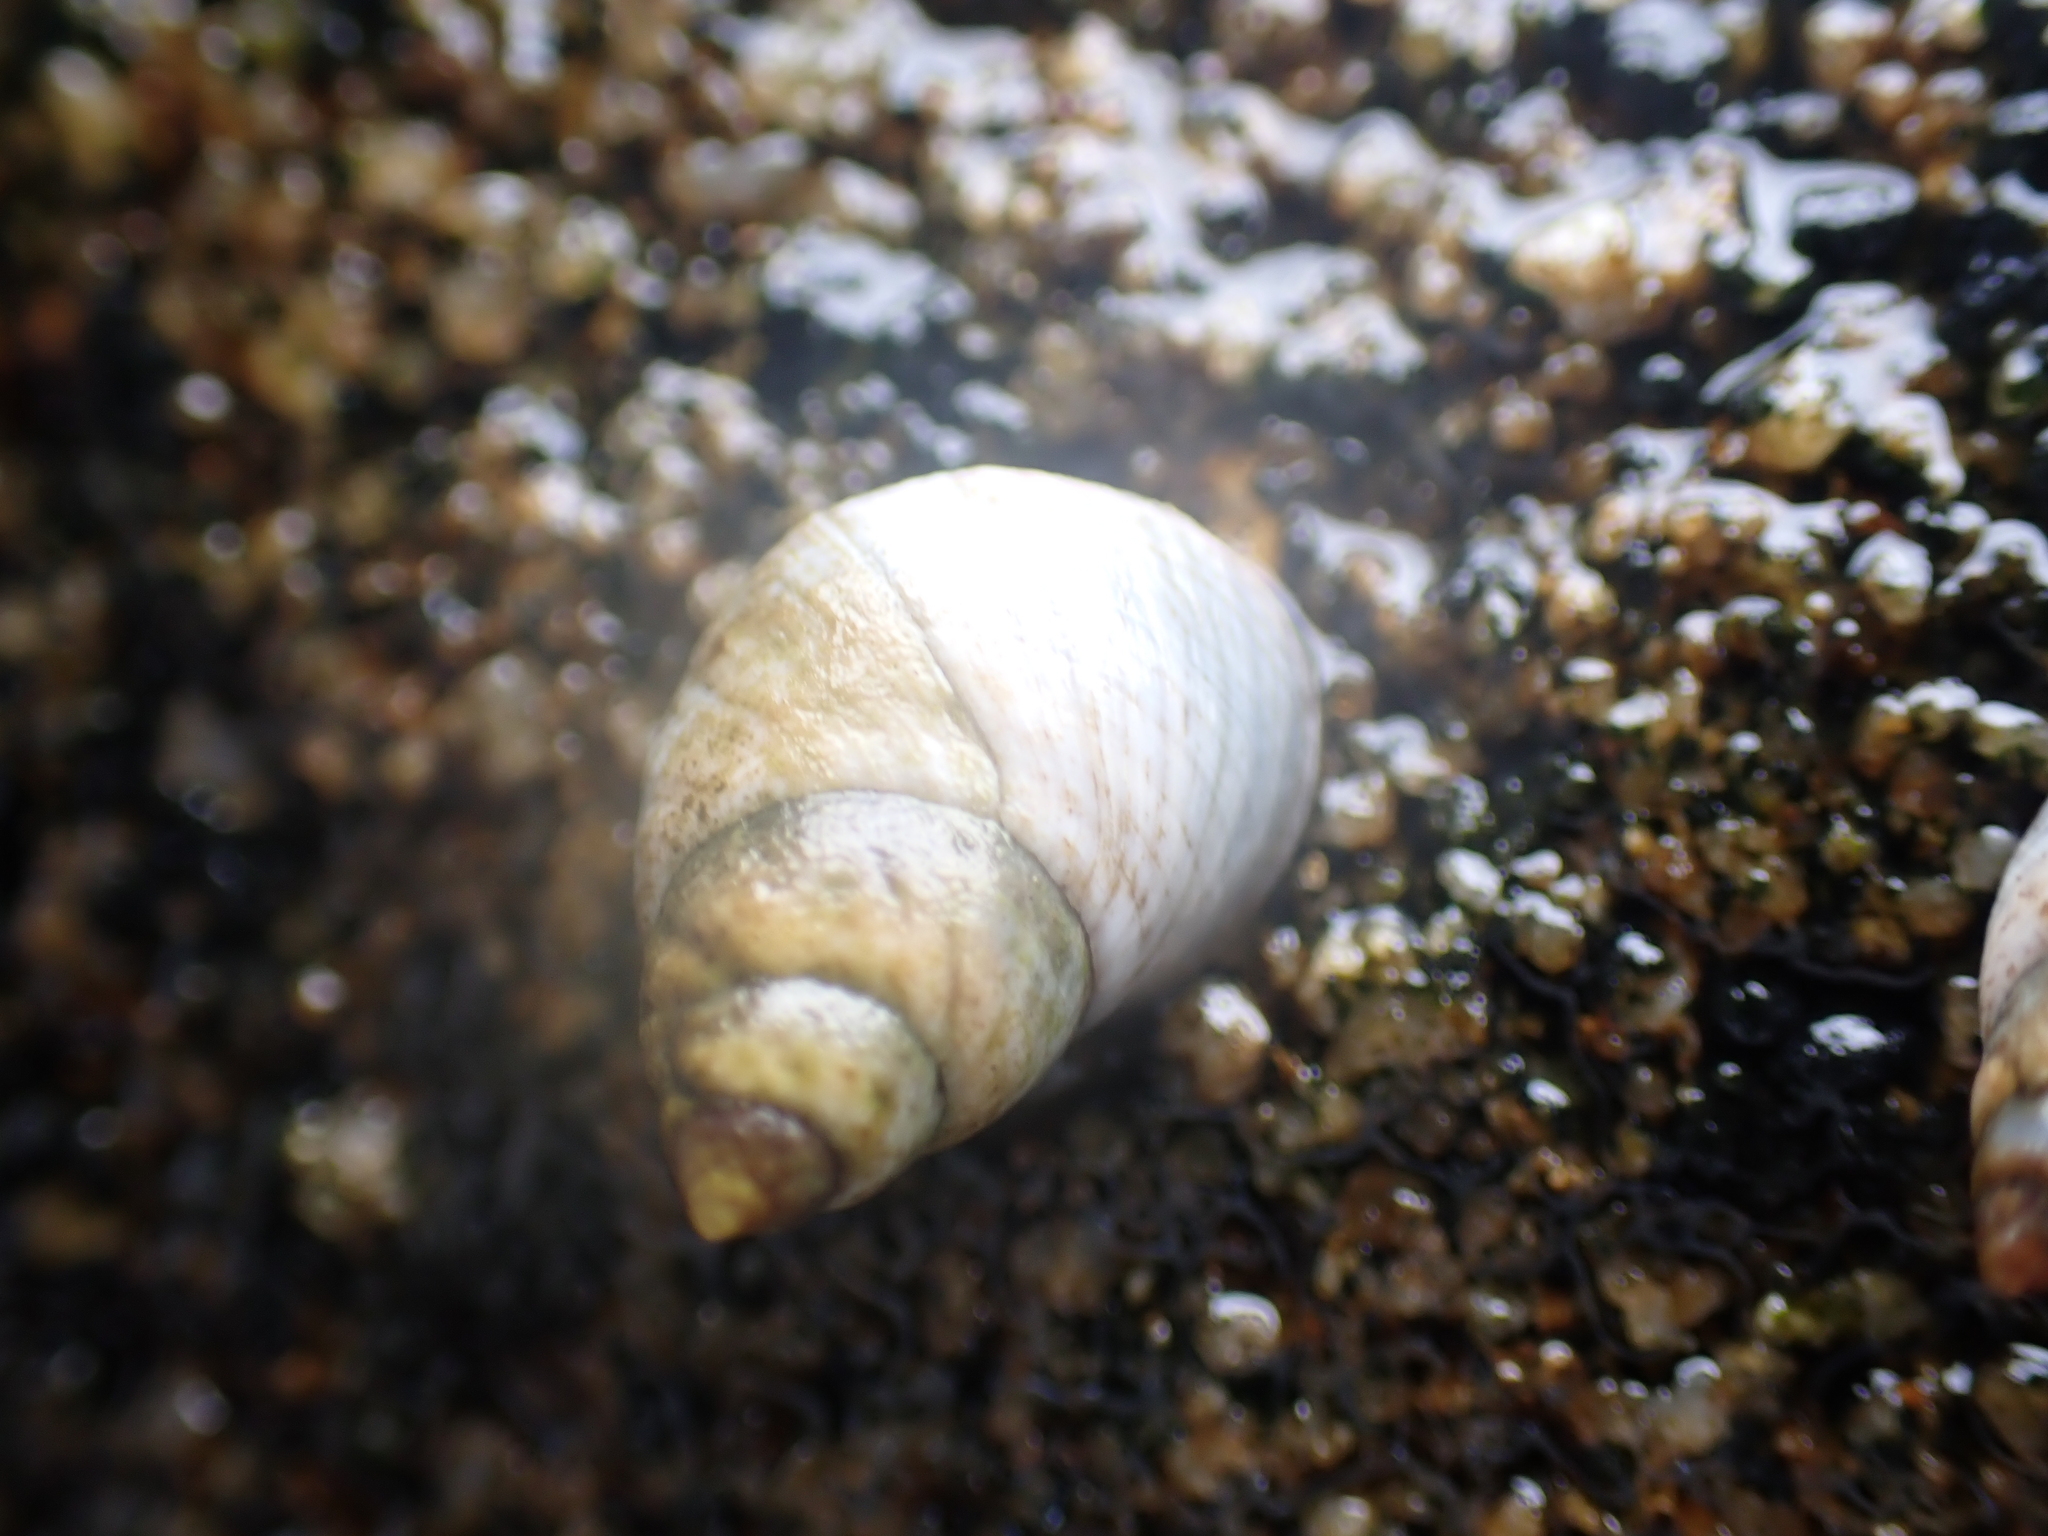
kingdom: Animalia
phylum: Mollusca
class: Gastropoda
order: Littorinimorpha
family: Littorinidae
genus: Austrolittorina
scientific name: Austrolittorina unifasciata
